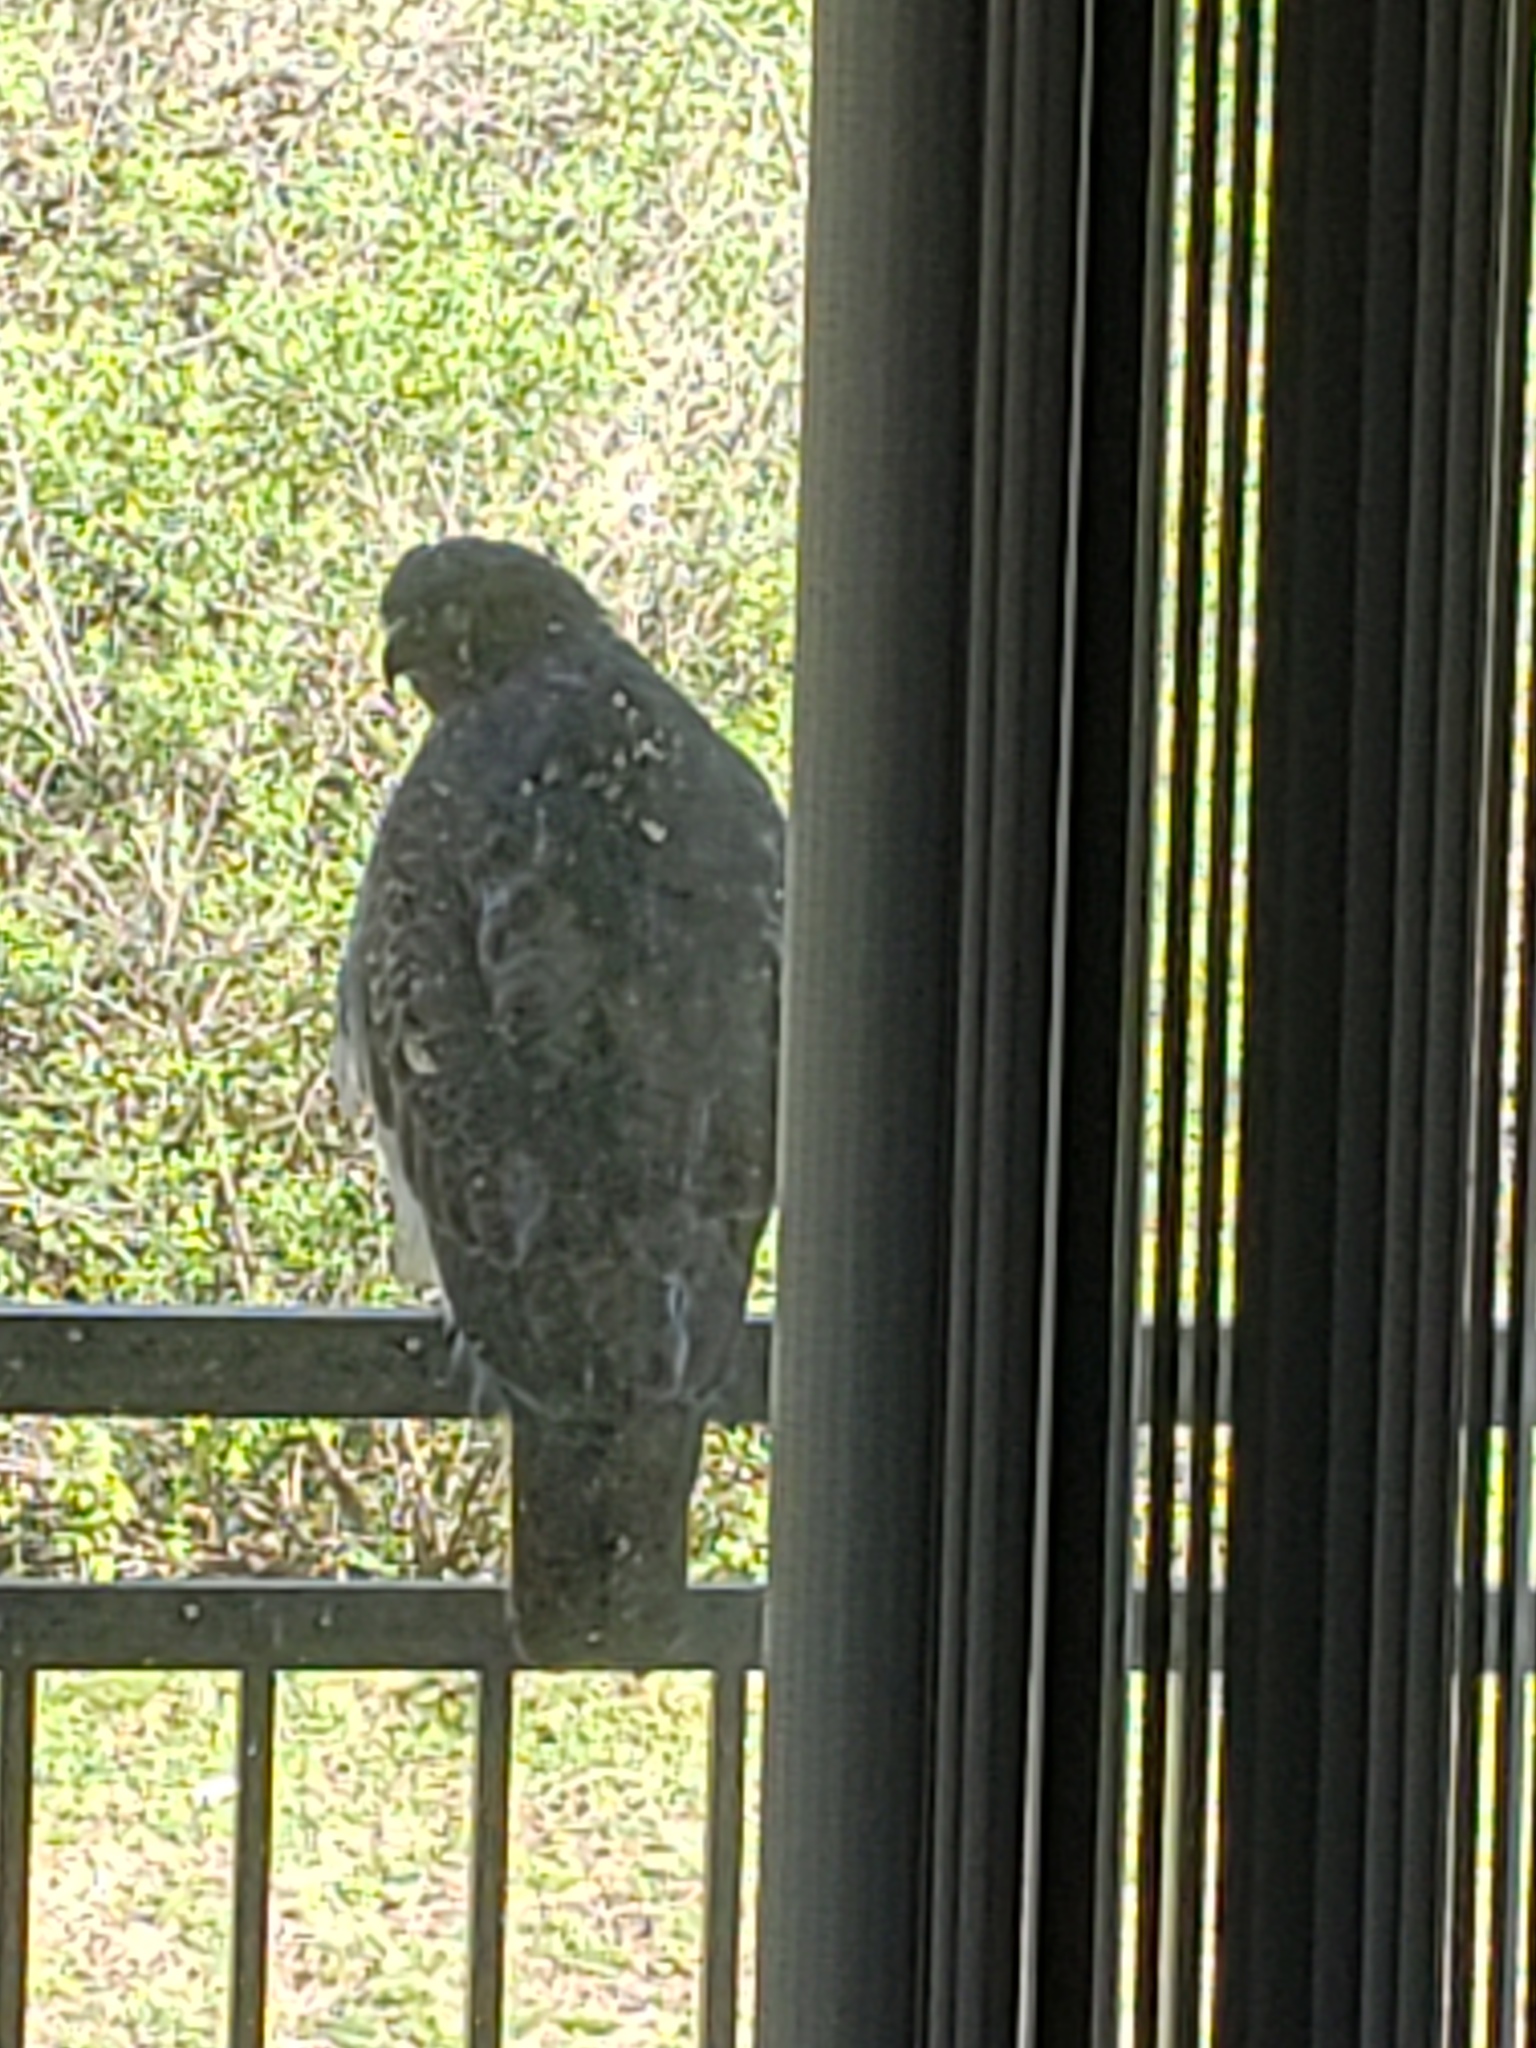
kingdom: Animalia
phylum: Chordata
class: Aves
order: Accipitriformes
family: Accipitridae
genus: Buteo
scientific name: Buteo jamaicensis
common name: Red-tailed hawk
